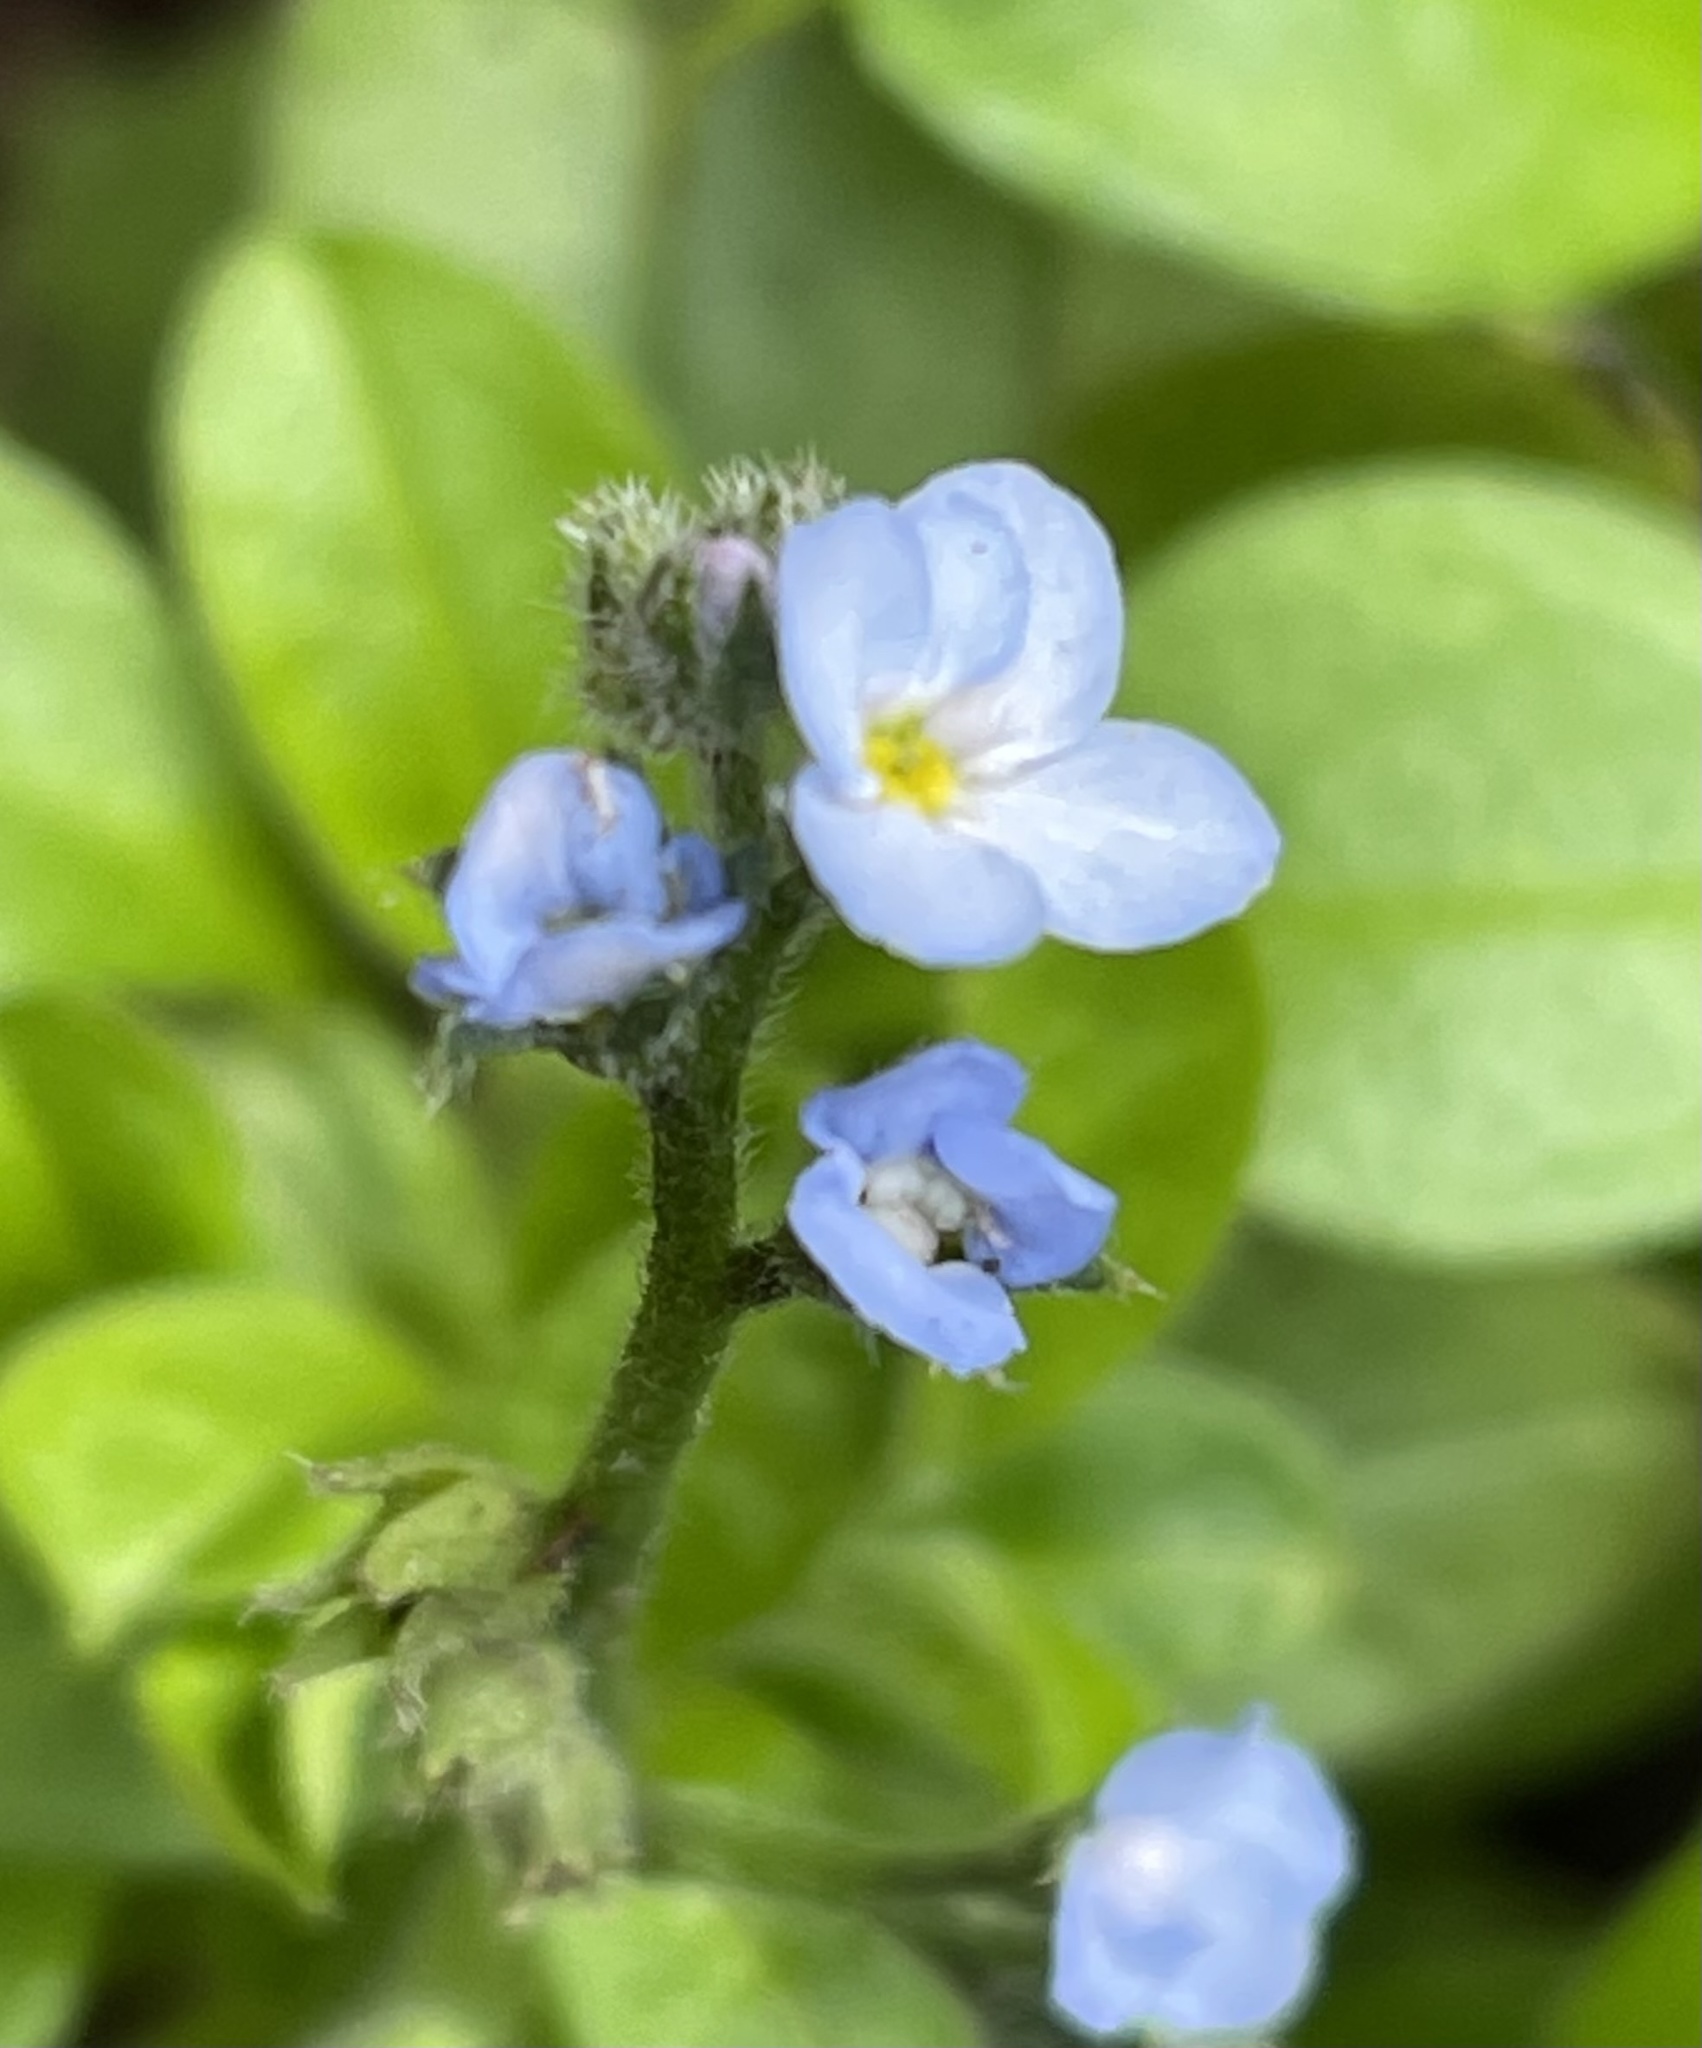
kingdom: Plantae
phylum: Tracheophyta
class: Magnoliopsida
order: Boraginales
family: Boraginaceae
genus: Myosotis
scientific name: Myosotis latifolia
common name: Broadleaf forget-me-not
